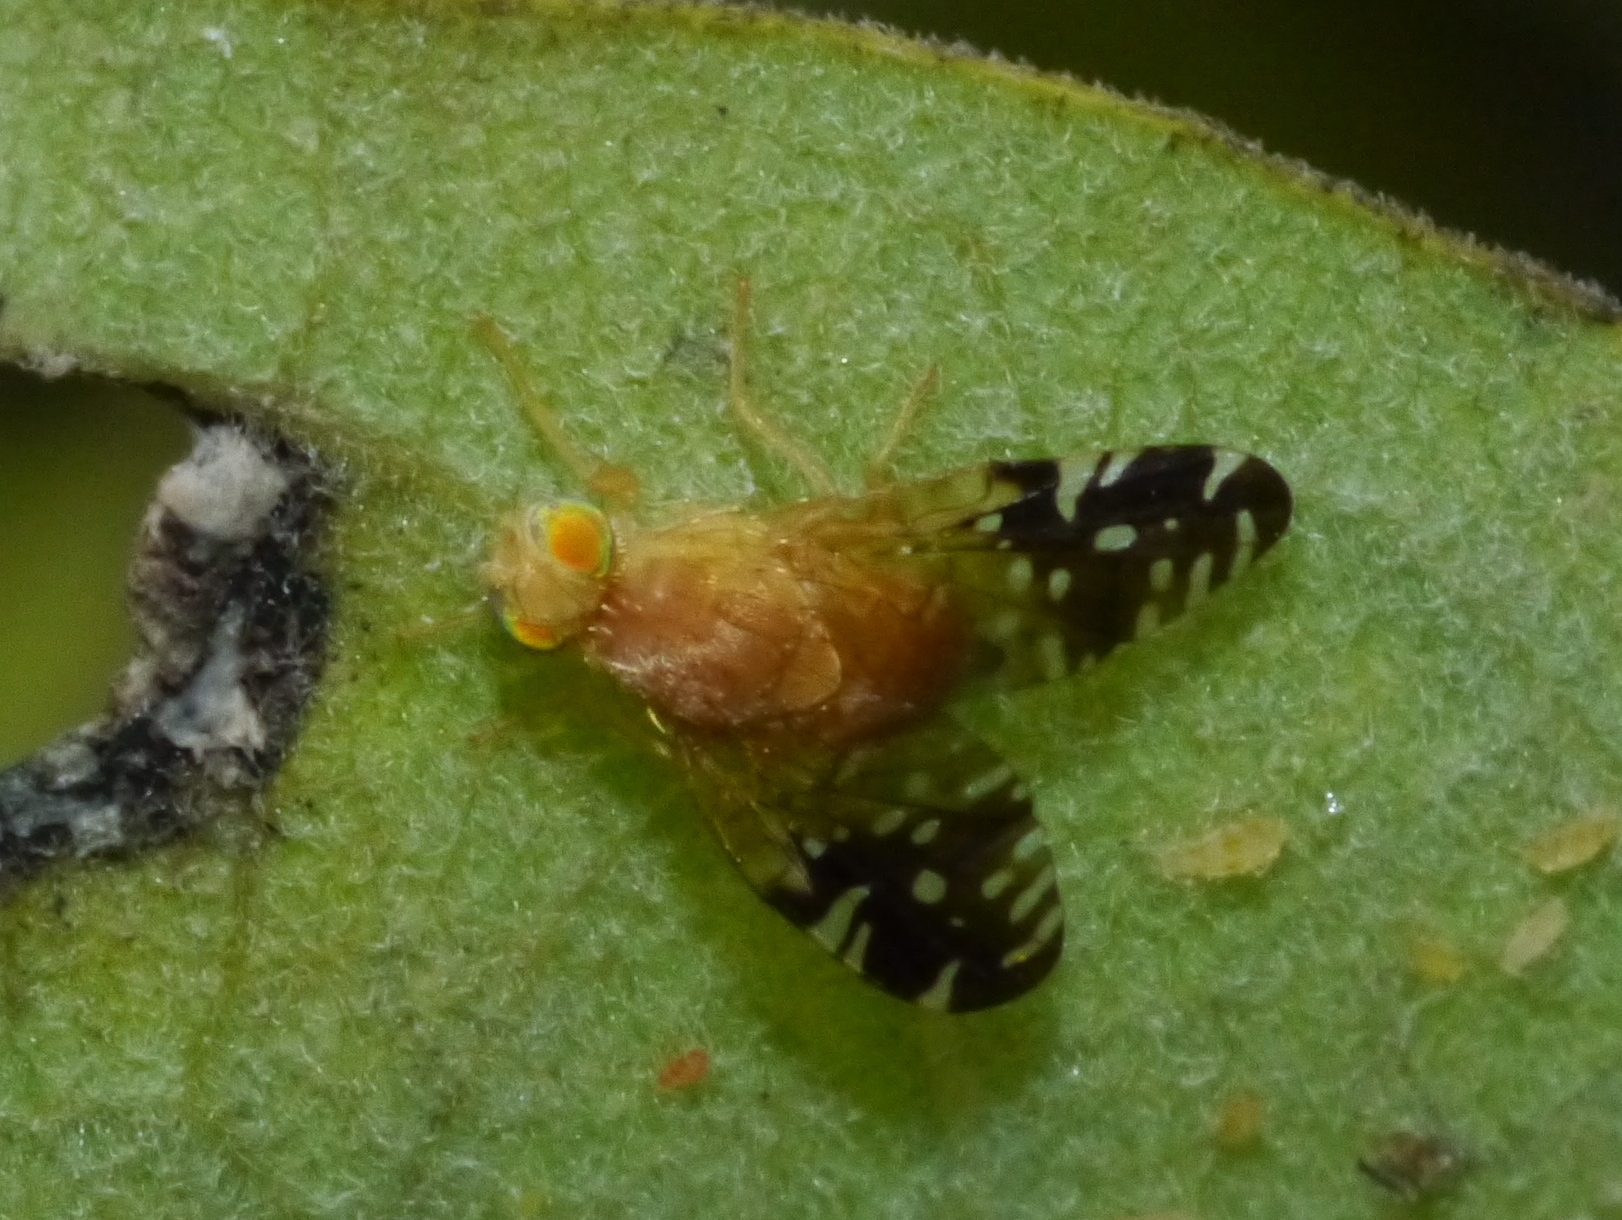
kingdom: Animalia
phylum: Arthropoda
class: Insecta
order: Diptera
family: Tephritidae
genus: Gymnocarena
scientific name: Gymnocarena norrbomi
